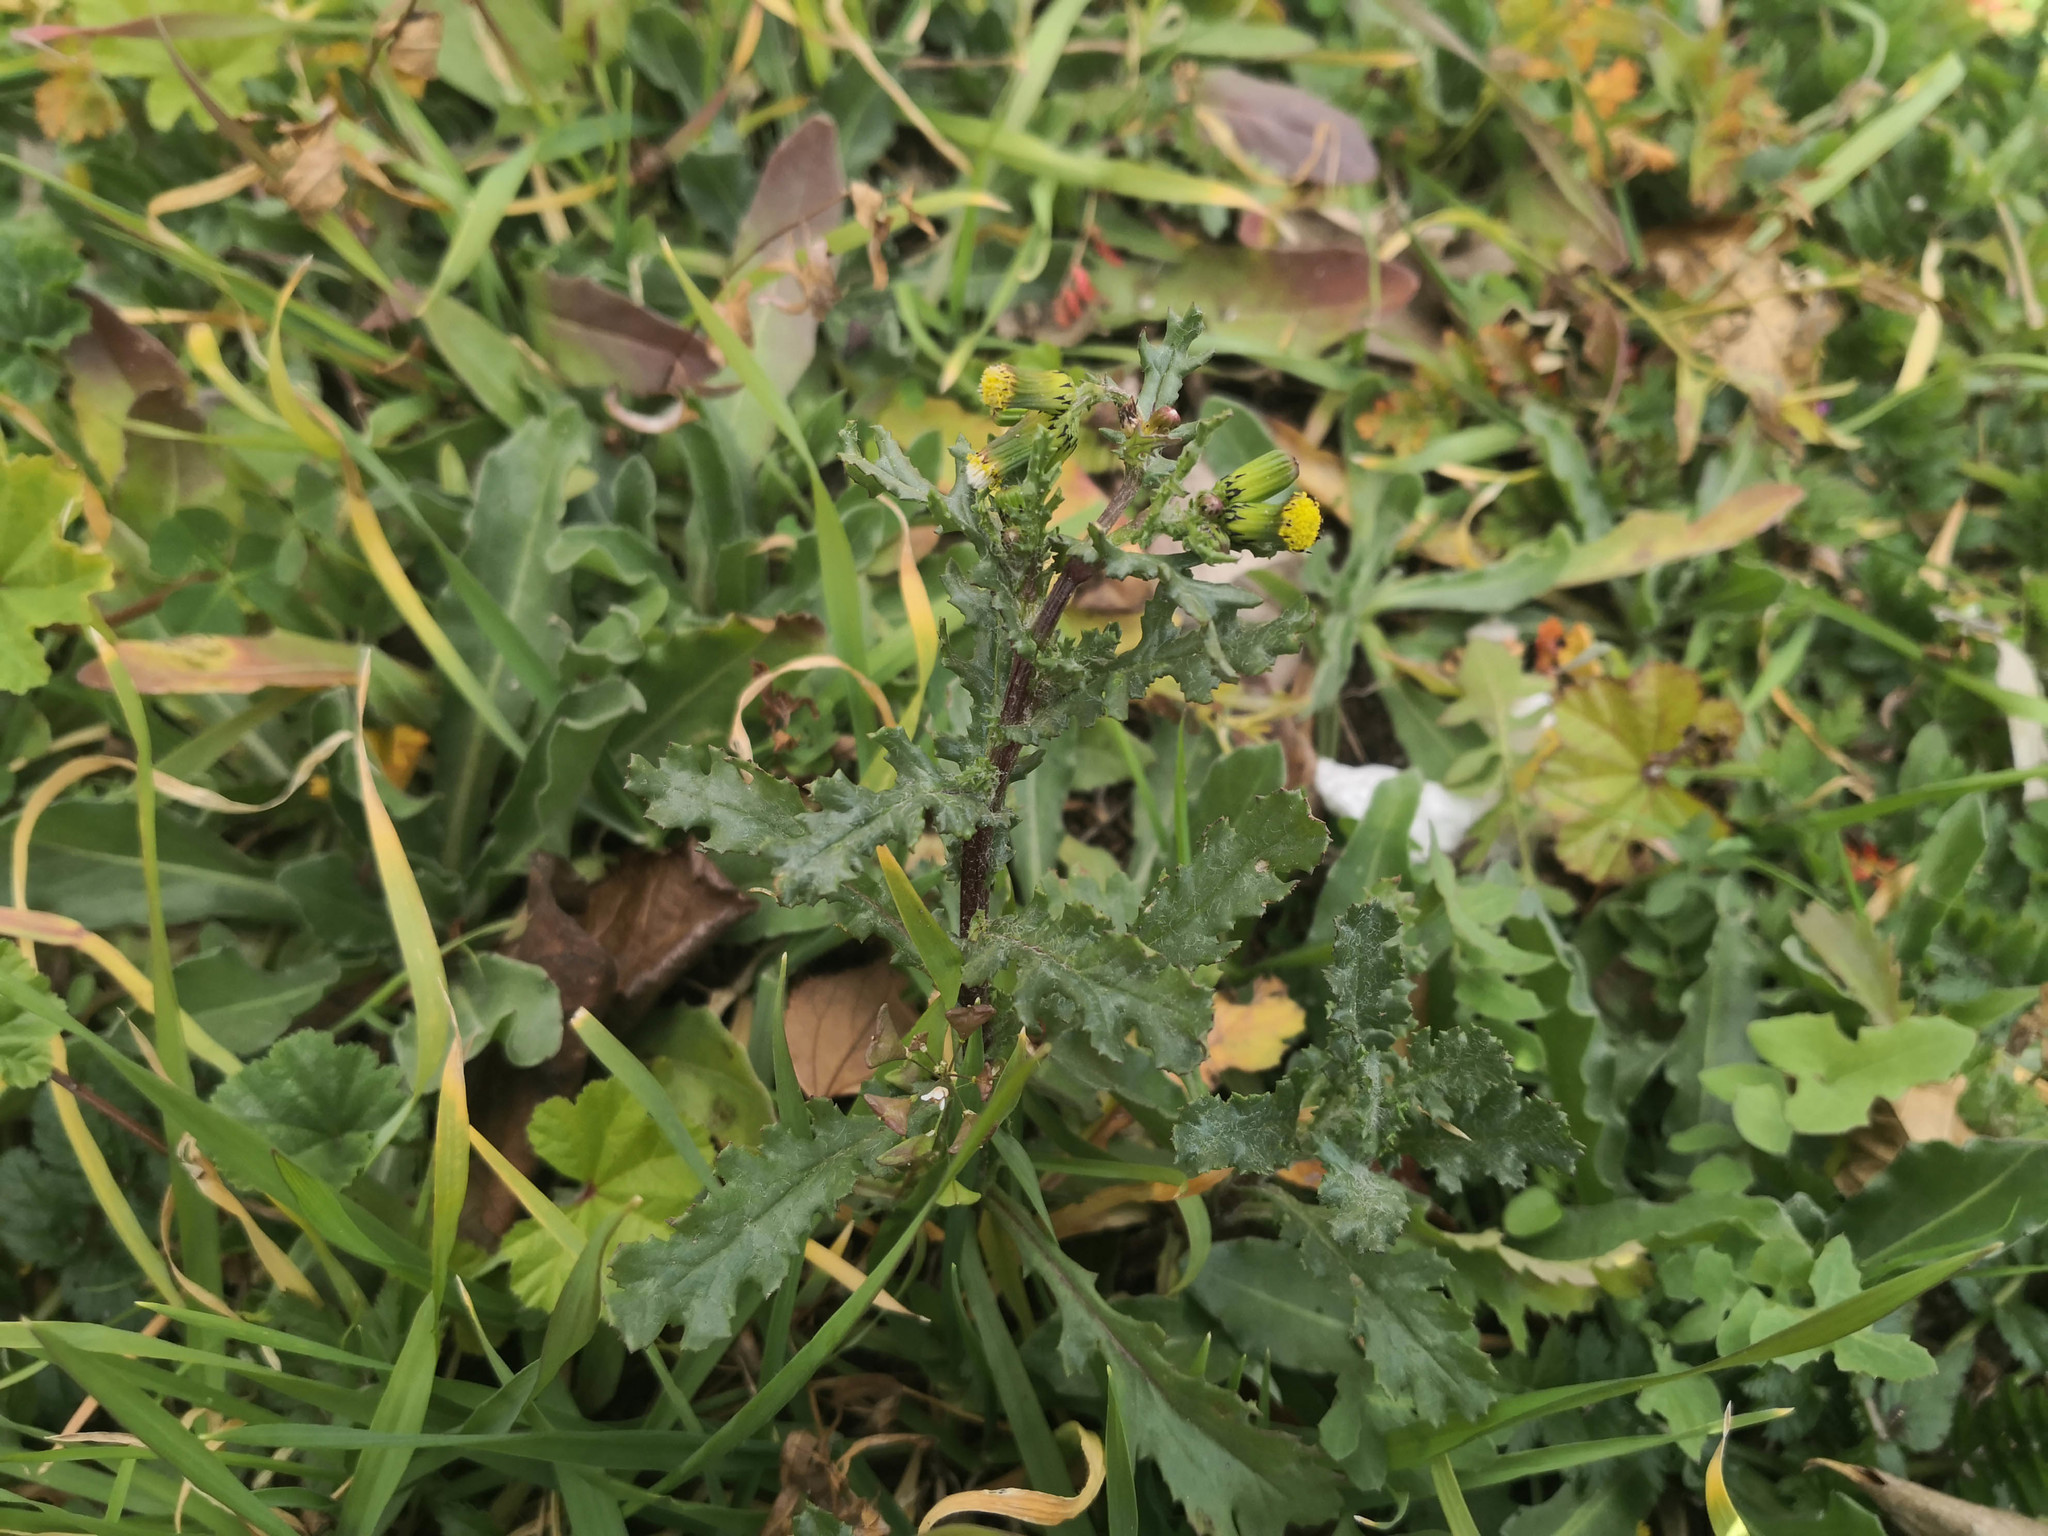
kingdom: Plantae
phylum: Tracheophyta
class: Magnoliopsida
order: Asterales
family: Asteraceae
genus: Senecio
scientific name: Senecio vulgaris
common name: Old-man-in-the-spring
